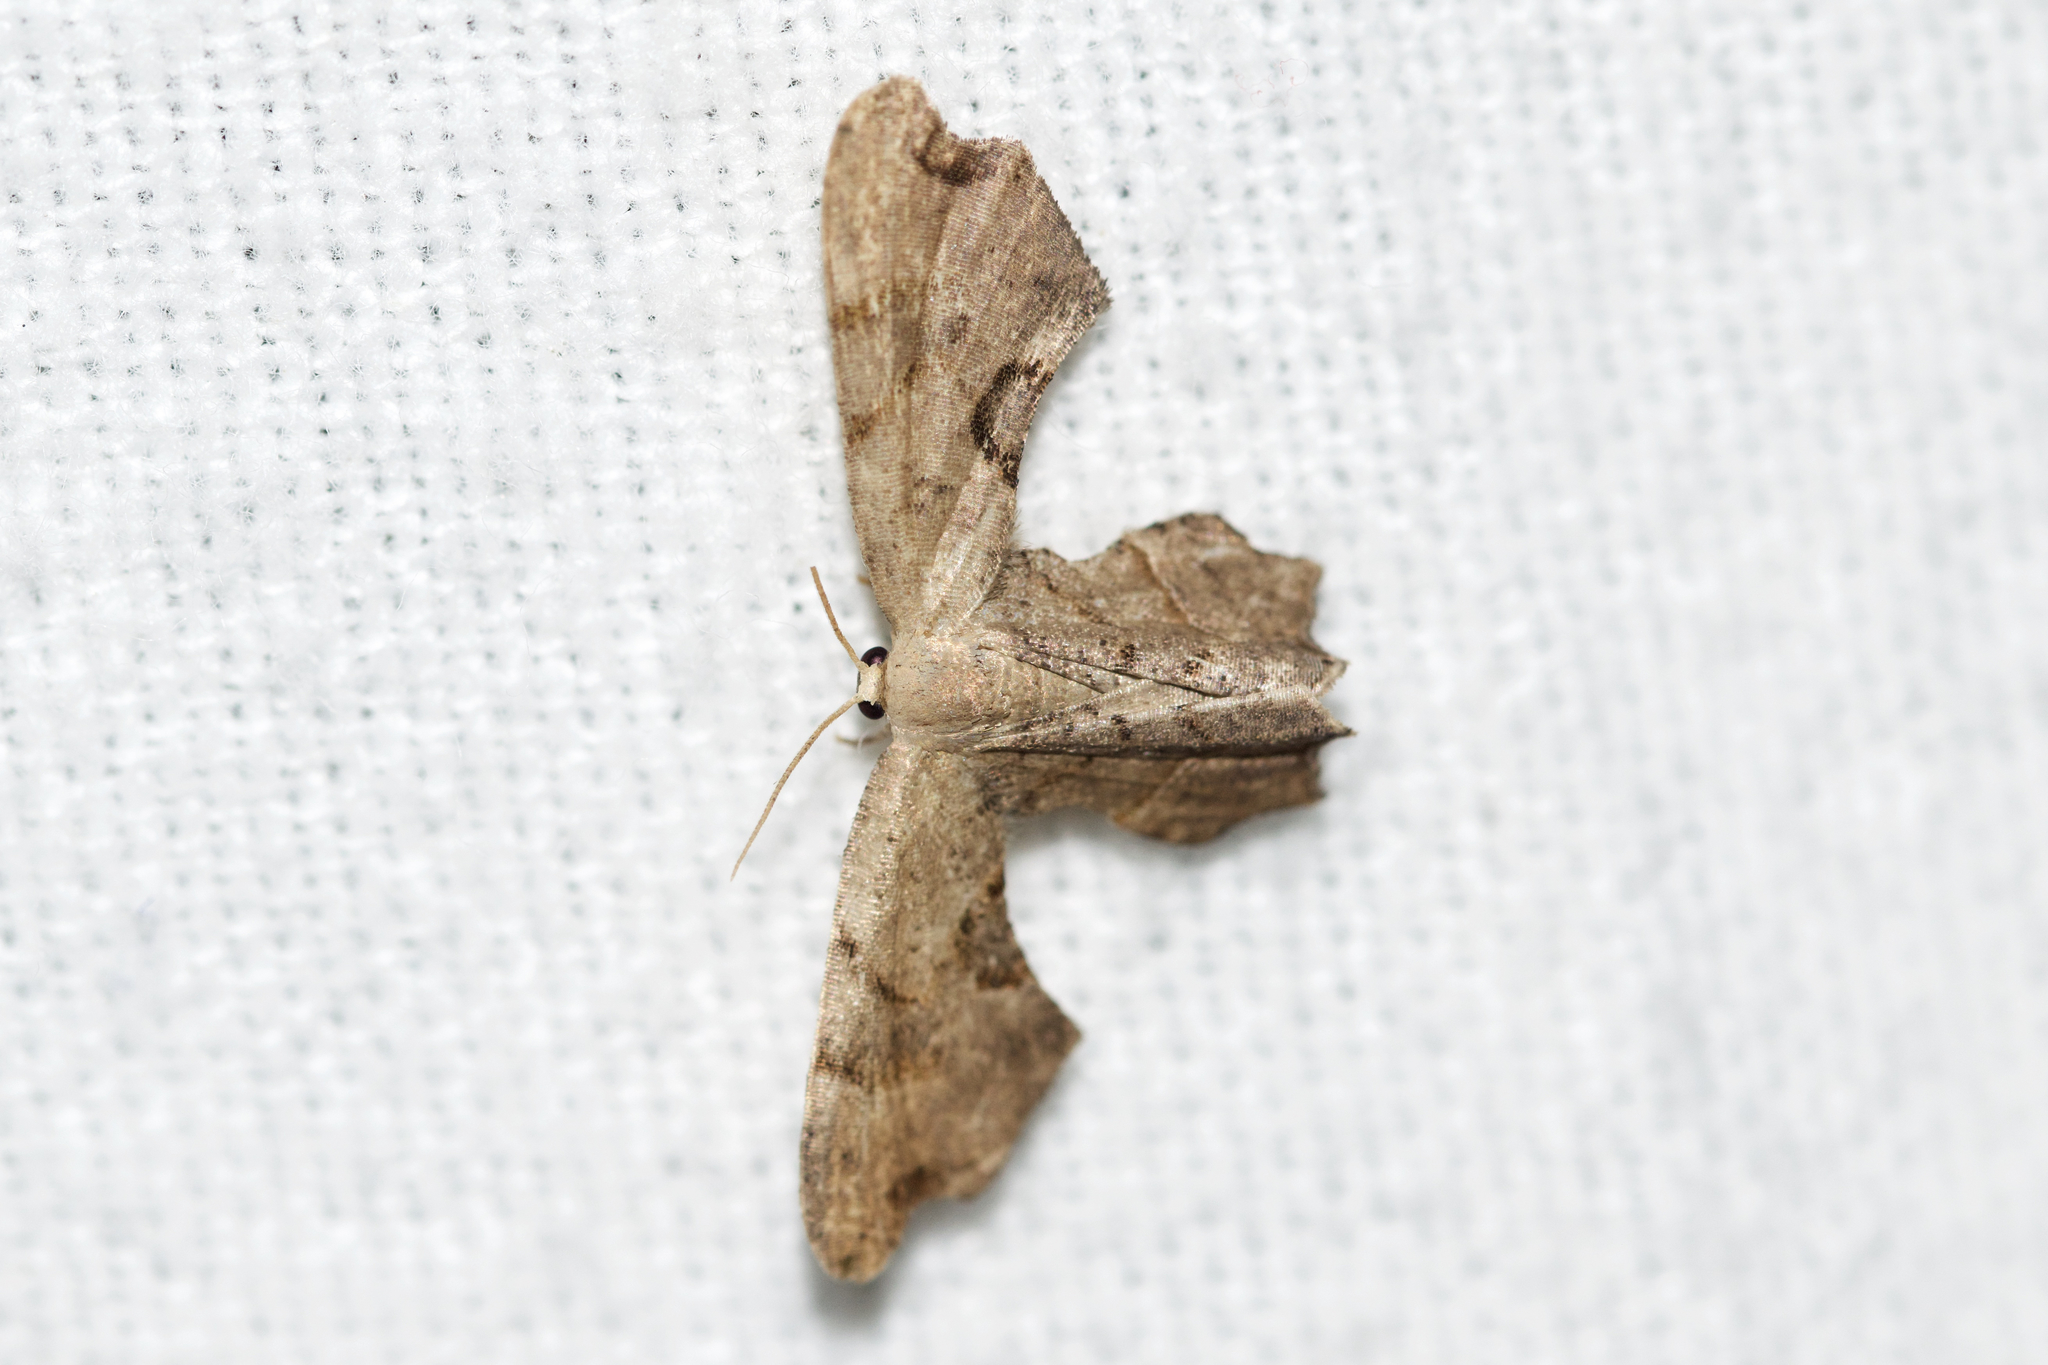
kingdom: Animalia
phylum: Arthropoda
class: Insecta
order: Lepidoptera
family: Uraniidae
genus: Epiplema
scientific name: Epiplema Calledapteryx dryopterata
